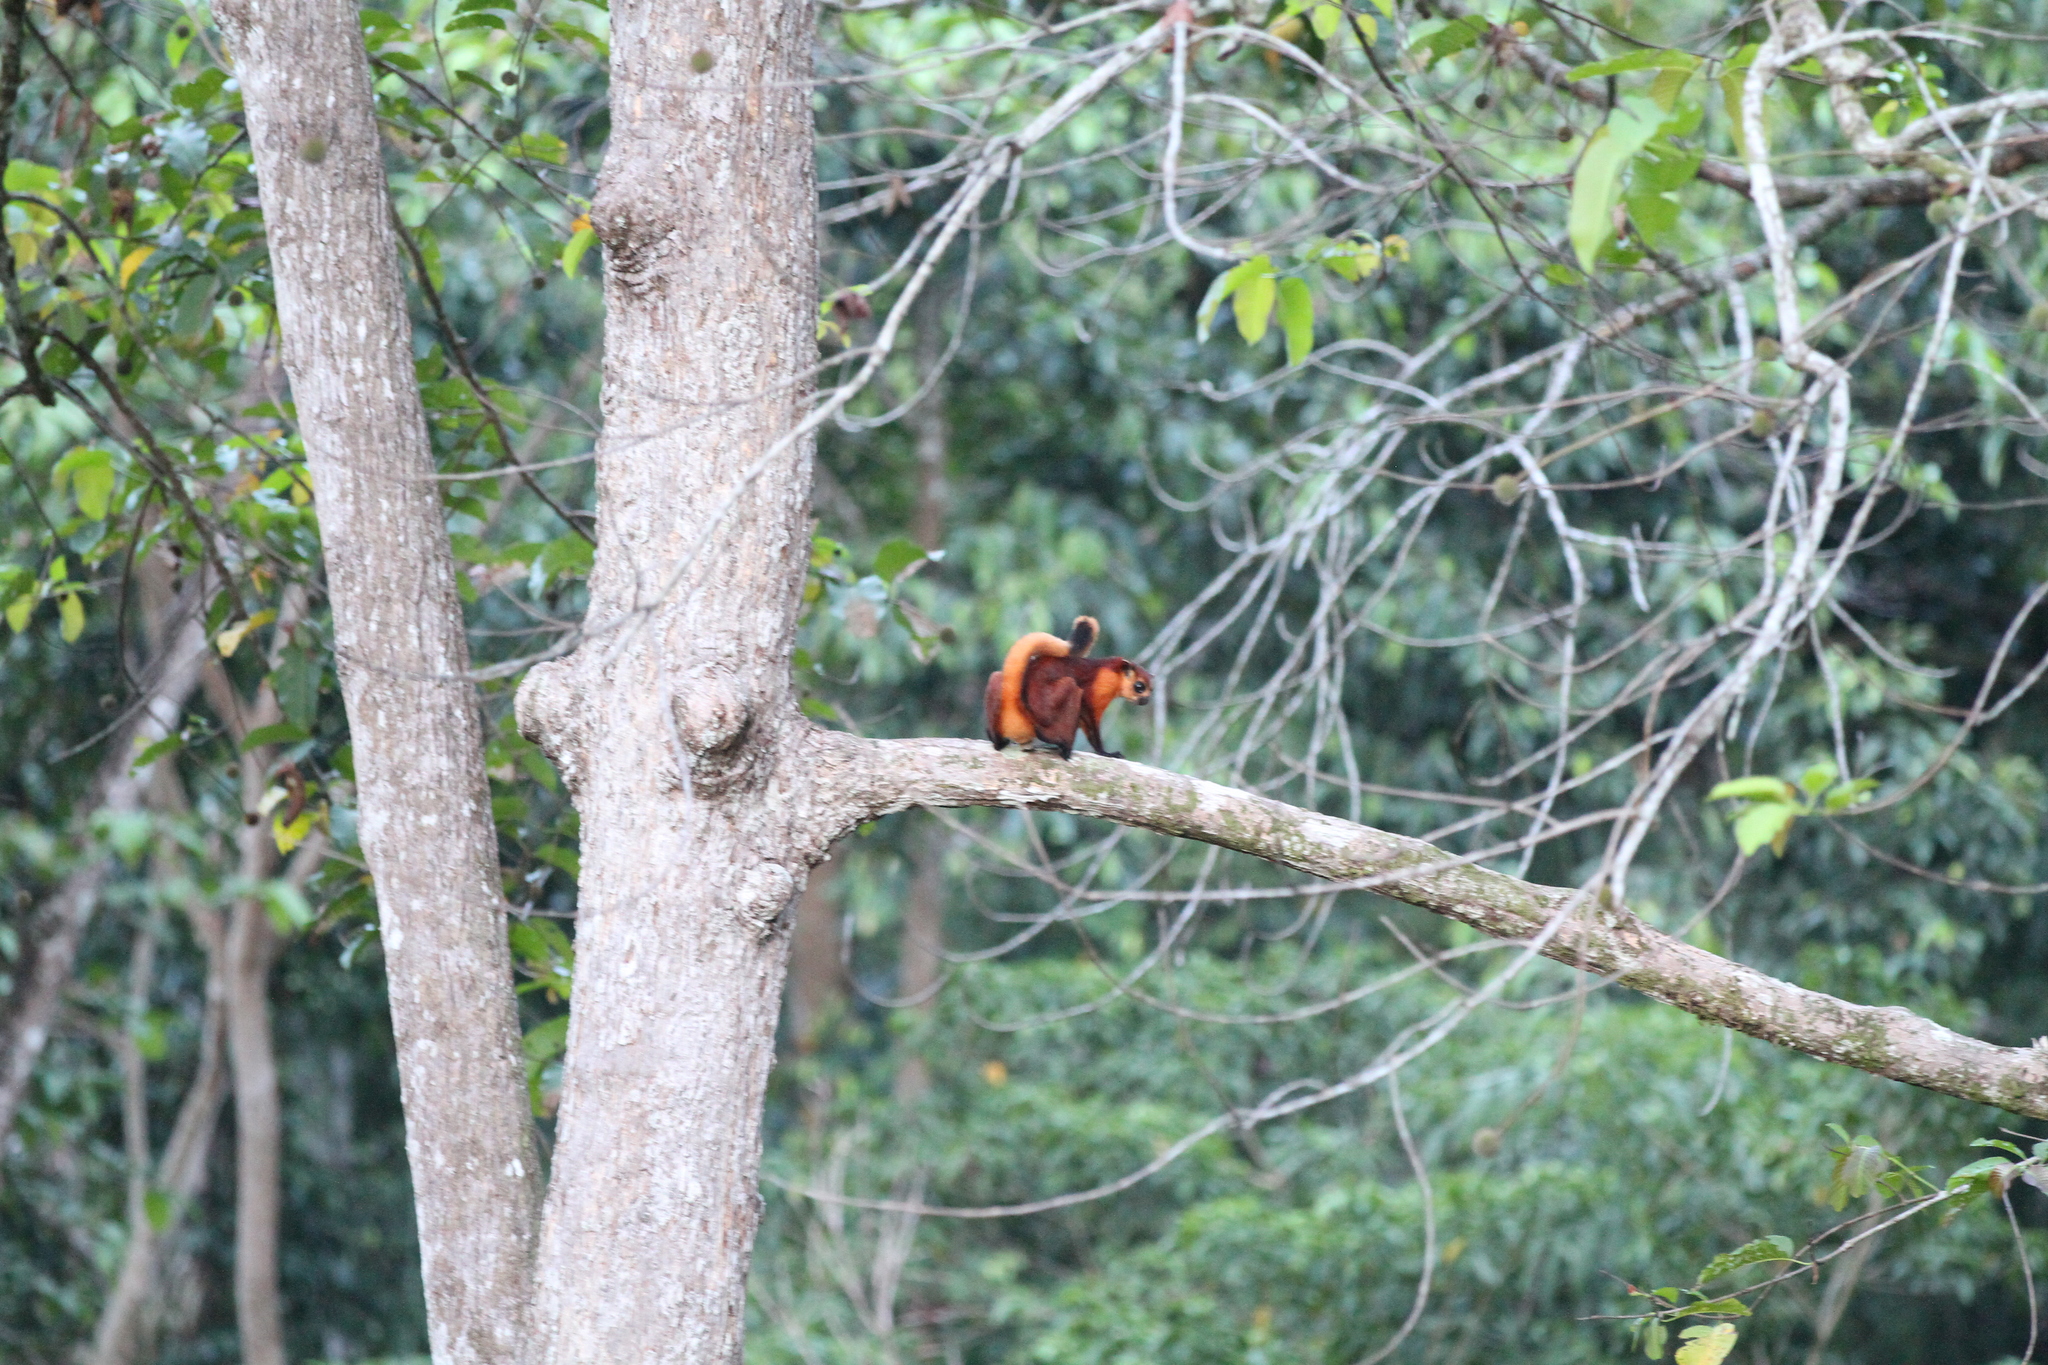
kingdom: Animalia
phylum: Chordata
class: Mammalia
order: Rodentia
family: Sciuridae
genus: Petaurista
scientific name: Petaurista petaurista
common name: Red giant flying squirrel
